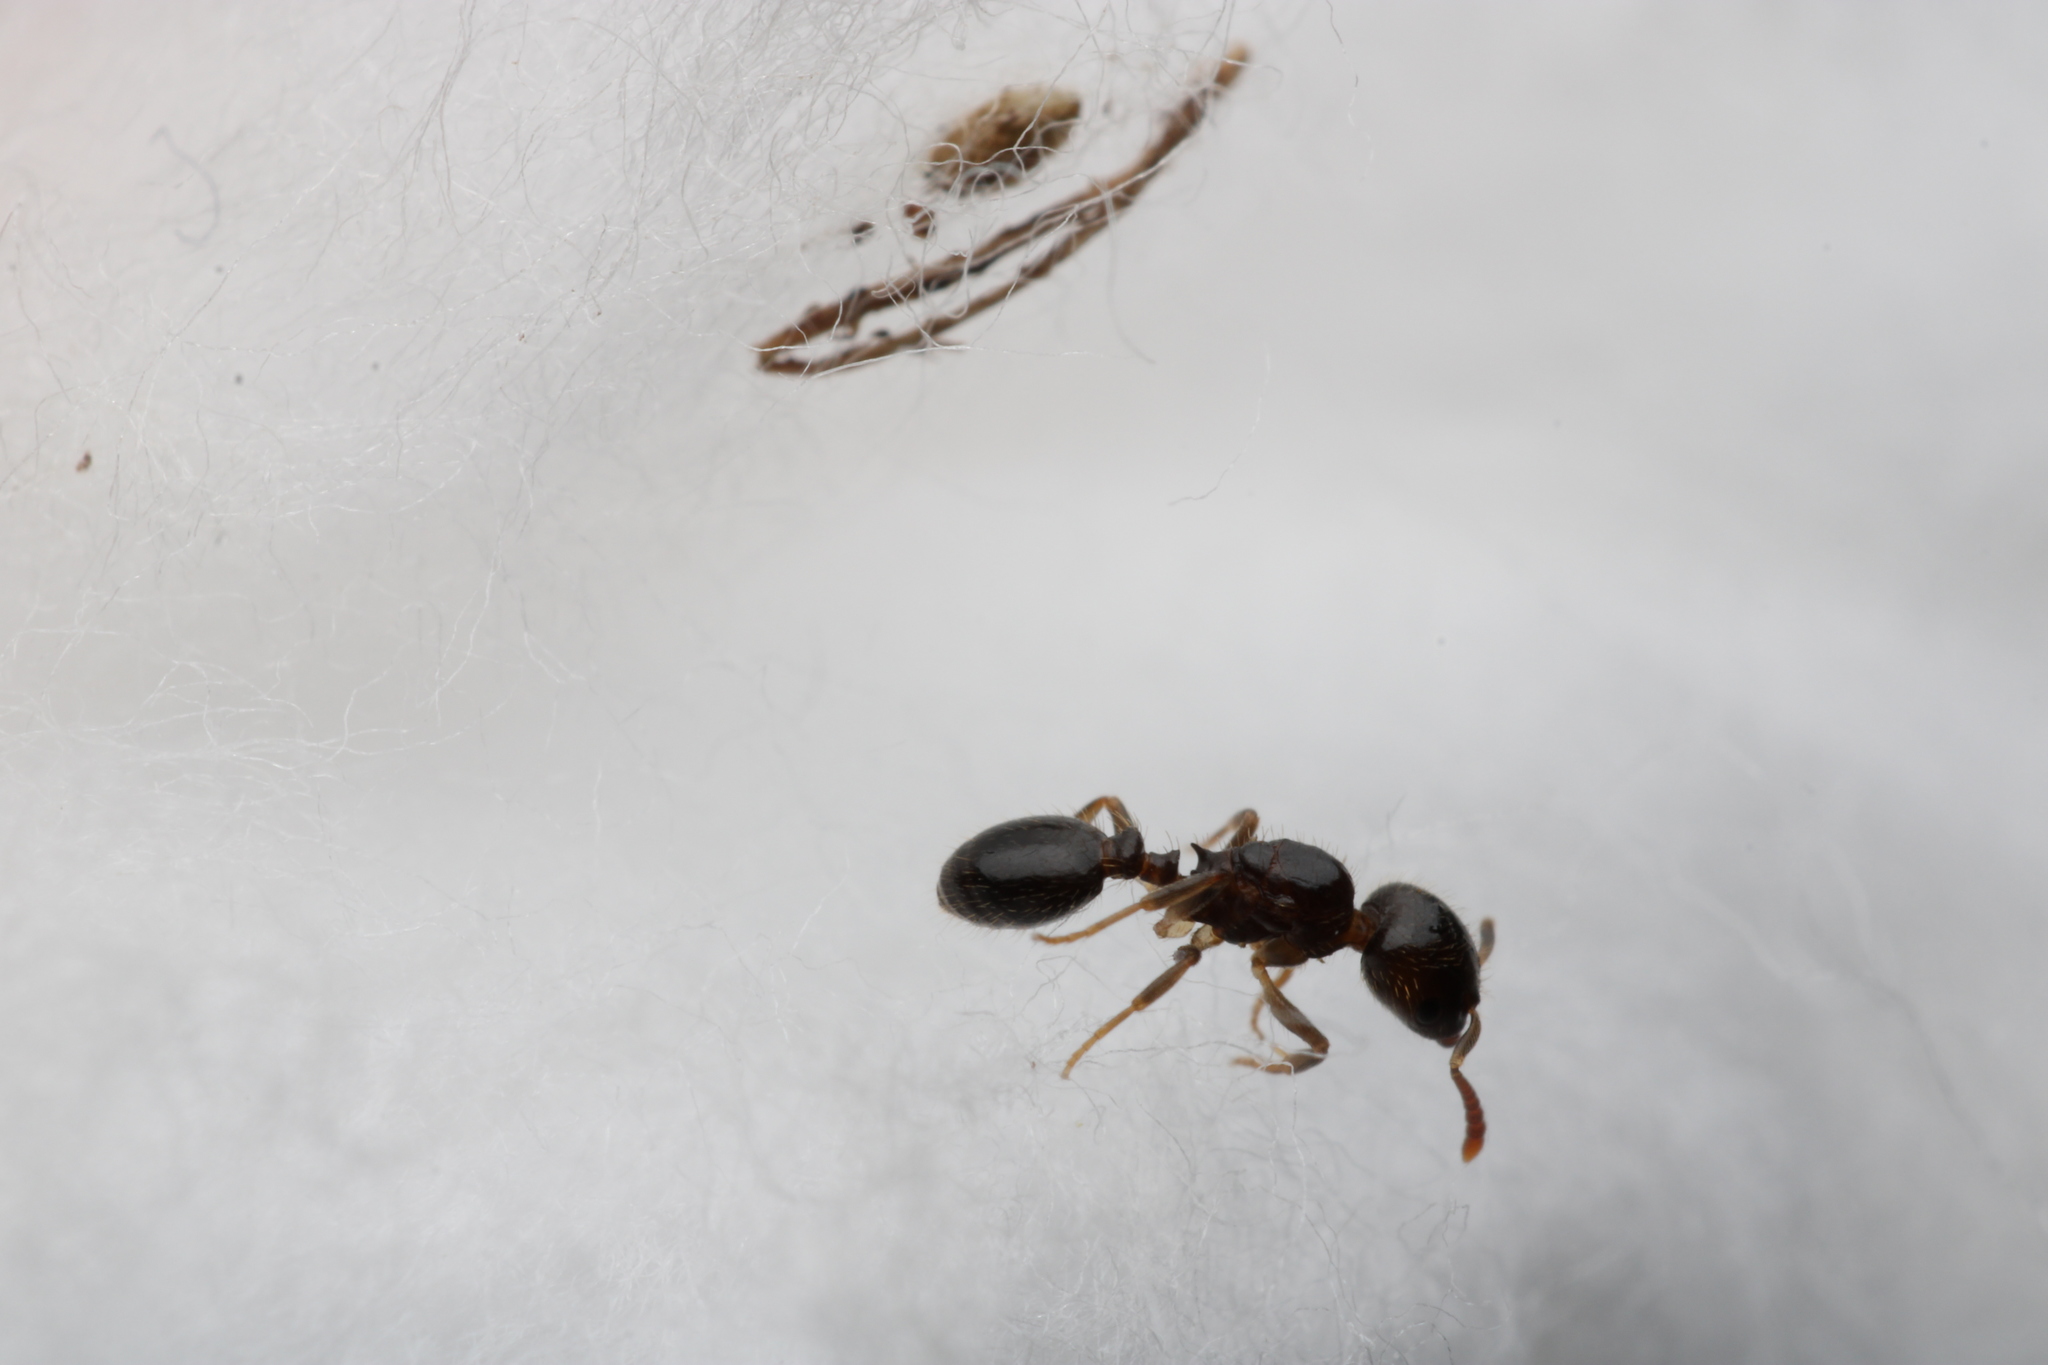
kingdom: Animalia
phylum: Arthropoda
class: Insecta
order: Hymenoptera
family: Formicidae
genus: Temnothorax
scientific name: Temnothorax
